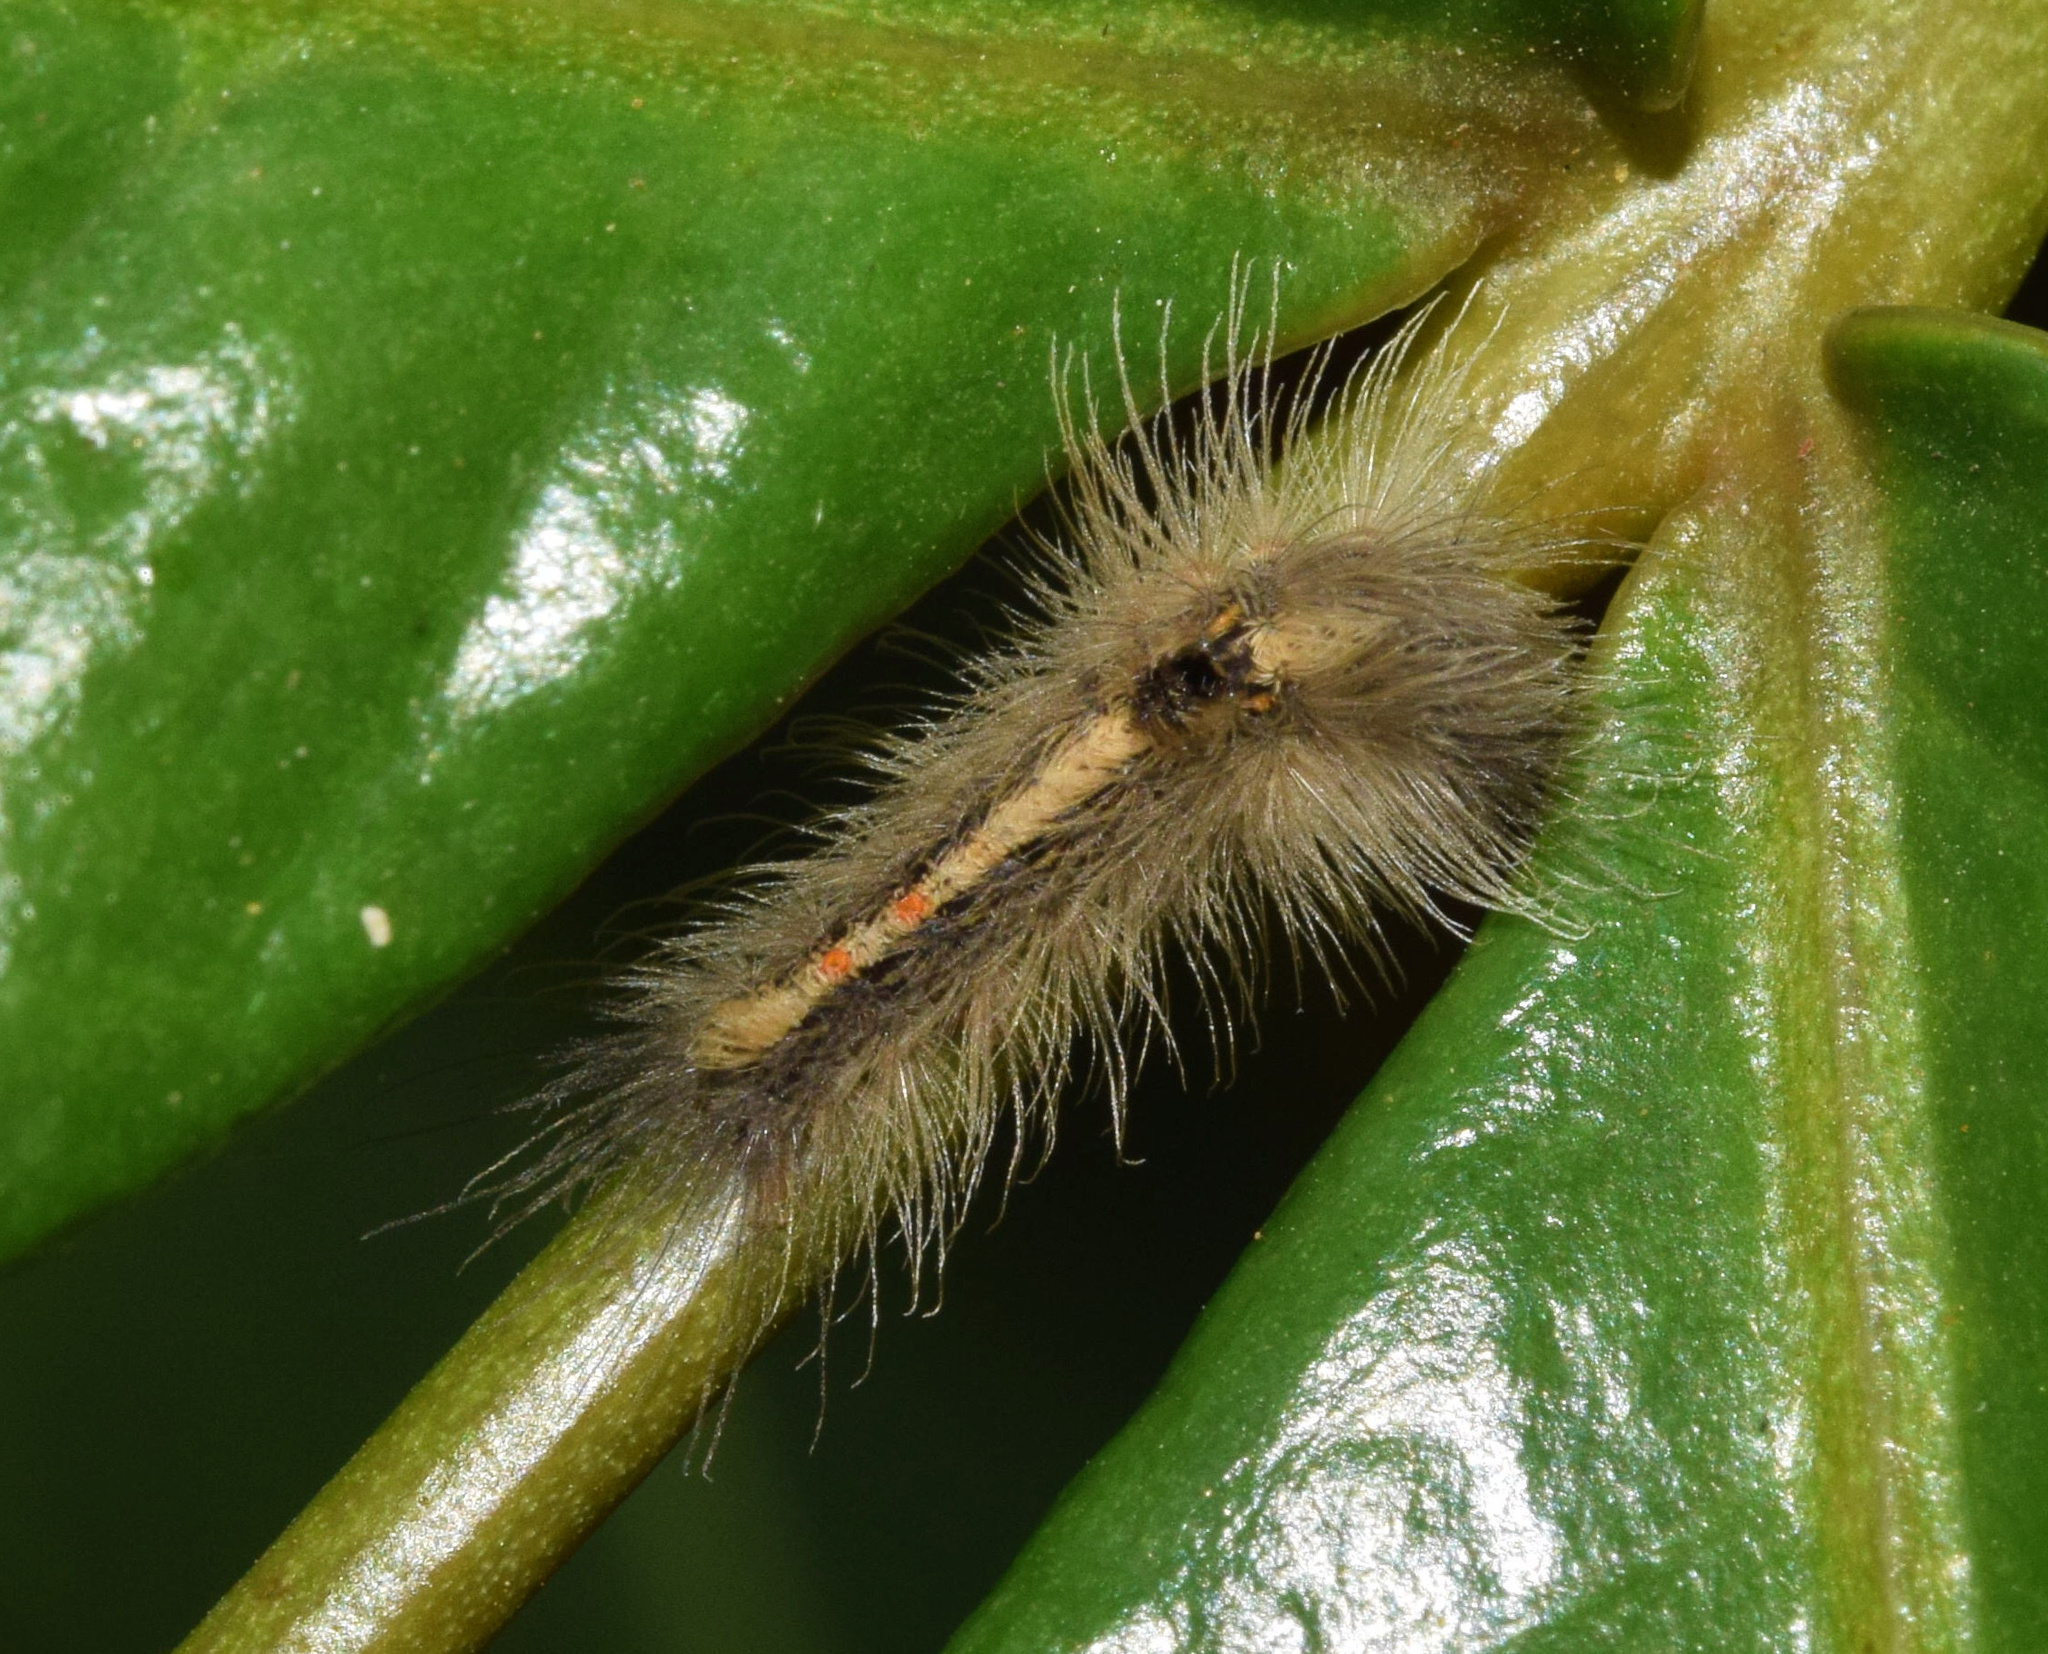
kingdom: Animalia
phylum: Arthropoda
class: Insecta
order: Lepidoptera
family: Erebidae
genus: Euproctis
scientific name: Euproctis punctifera
